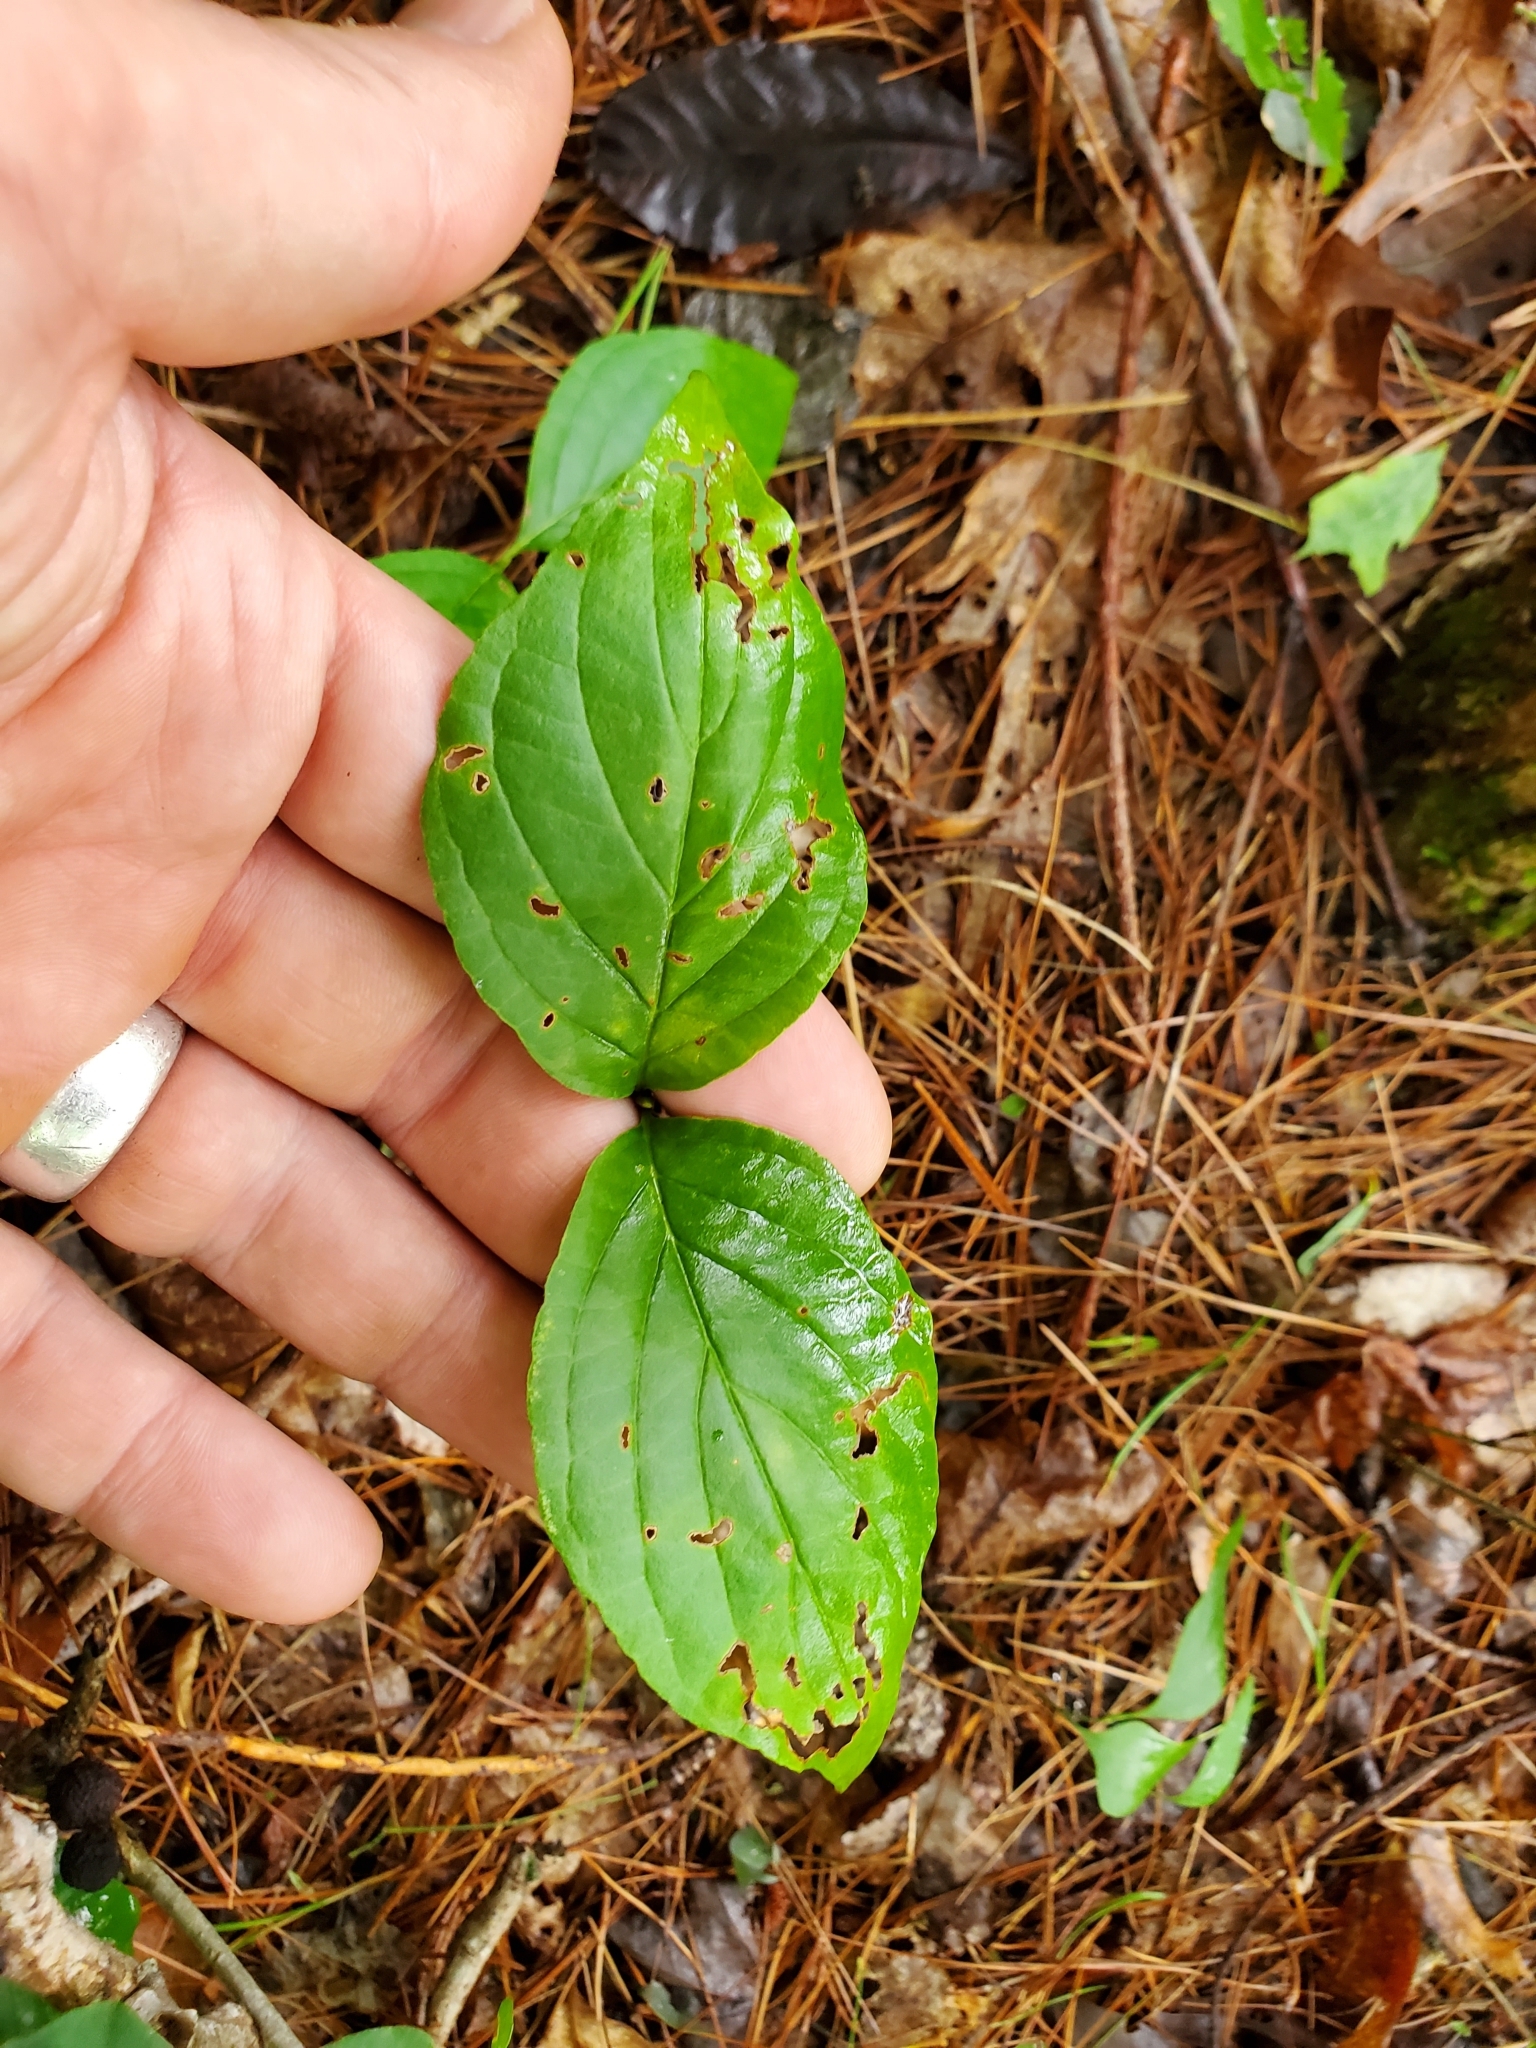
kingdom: Plantae
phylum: Tracheophyta
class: Magnoliopsida
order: Cornales
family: Cornaceae
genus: Cornus
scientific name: Cornus florida
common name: Flowering dogwood
